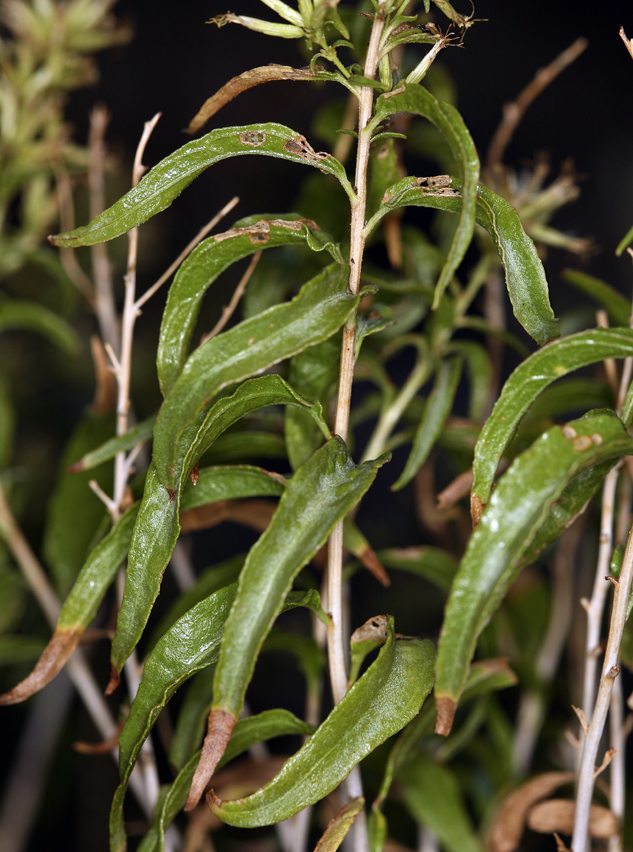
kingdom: Plantae
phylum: Tracheophyta
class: Magnoliopsida
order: Asterales
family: Asteraceae
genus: Brickellia
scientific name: Brickellia longifolia
